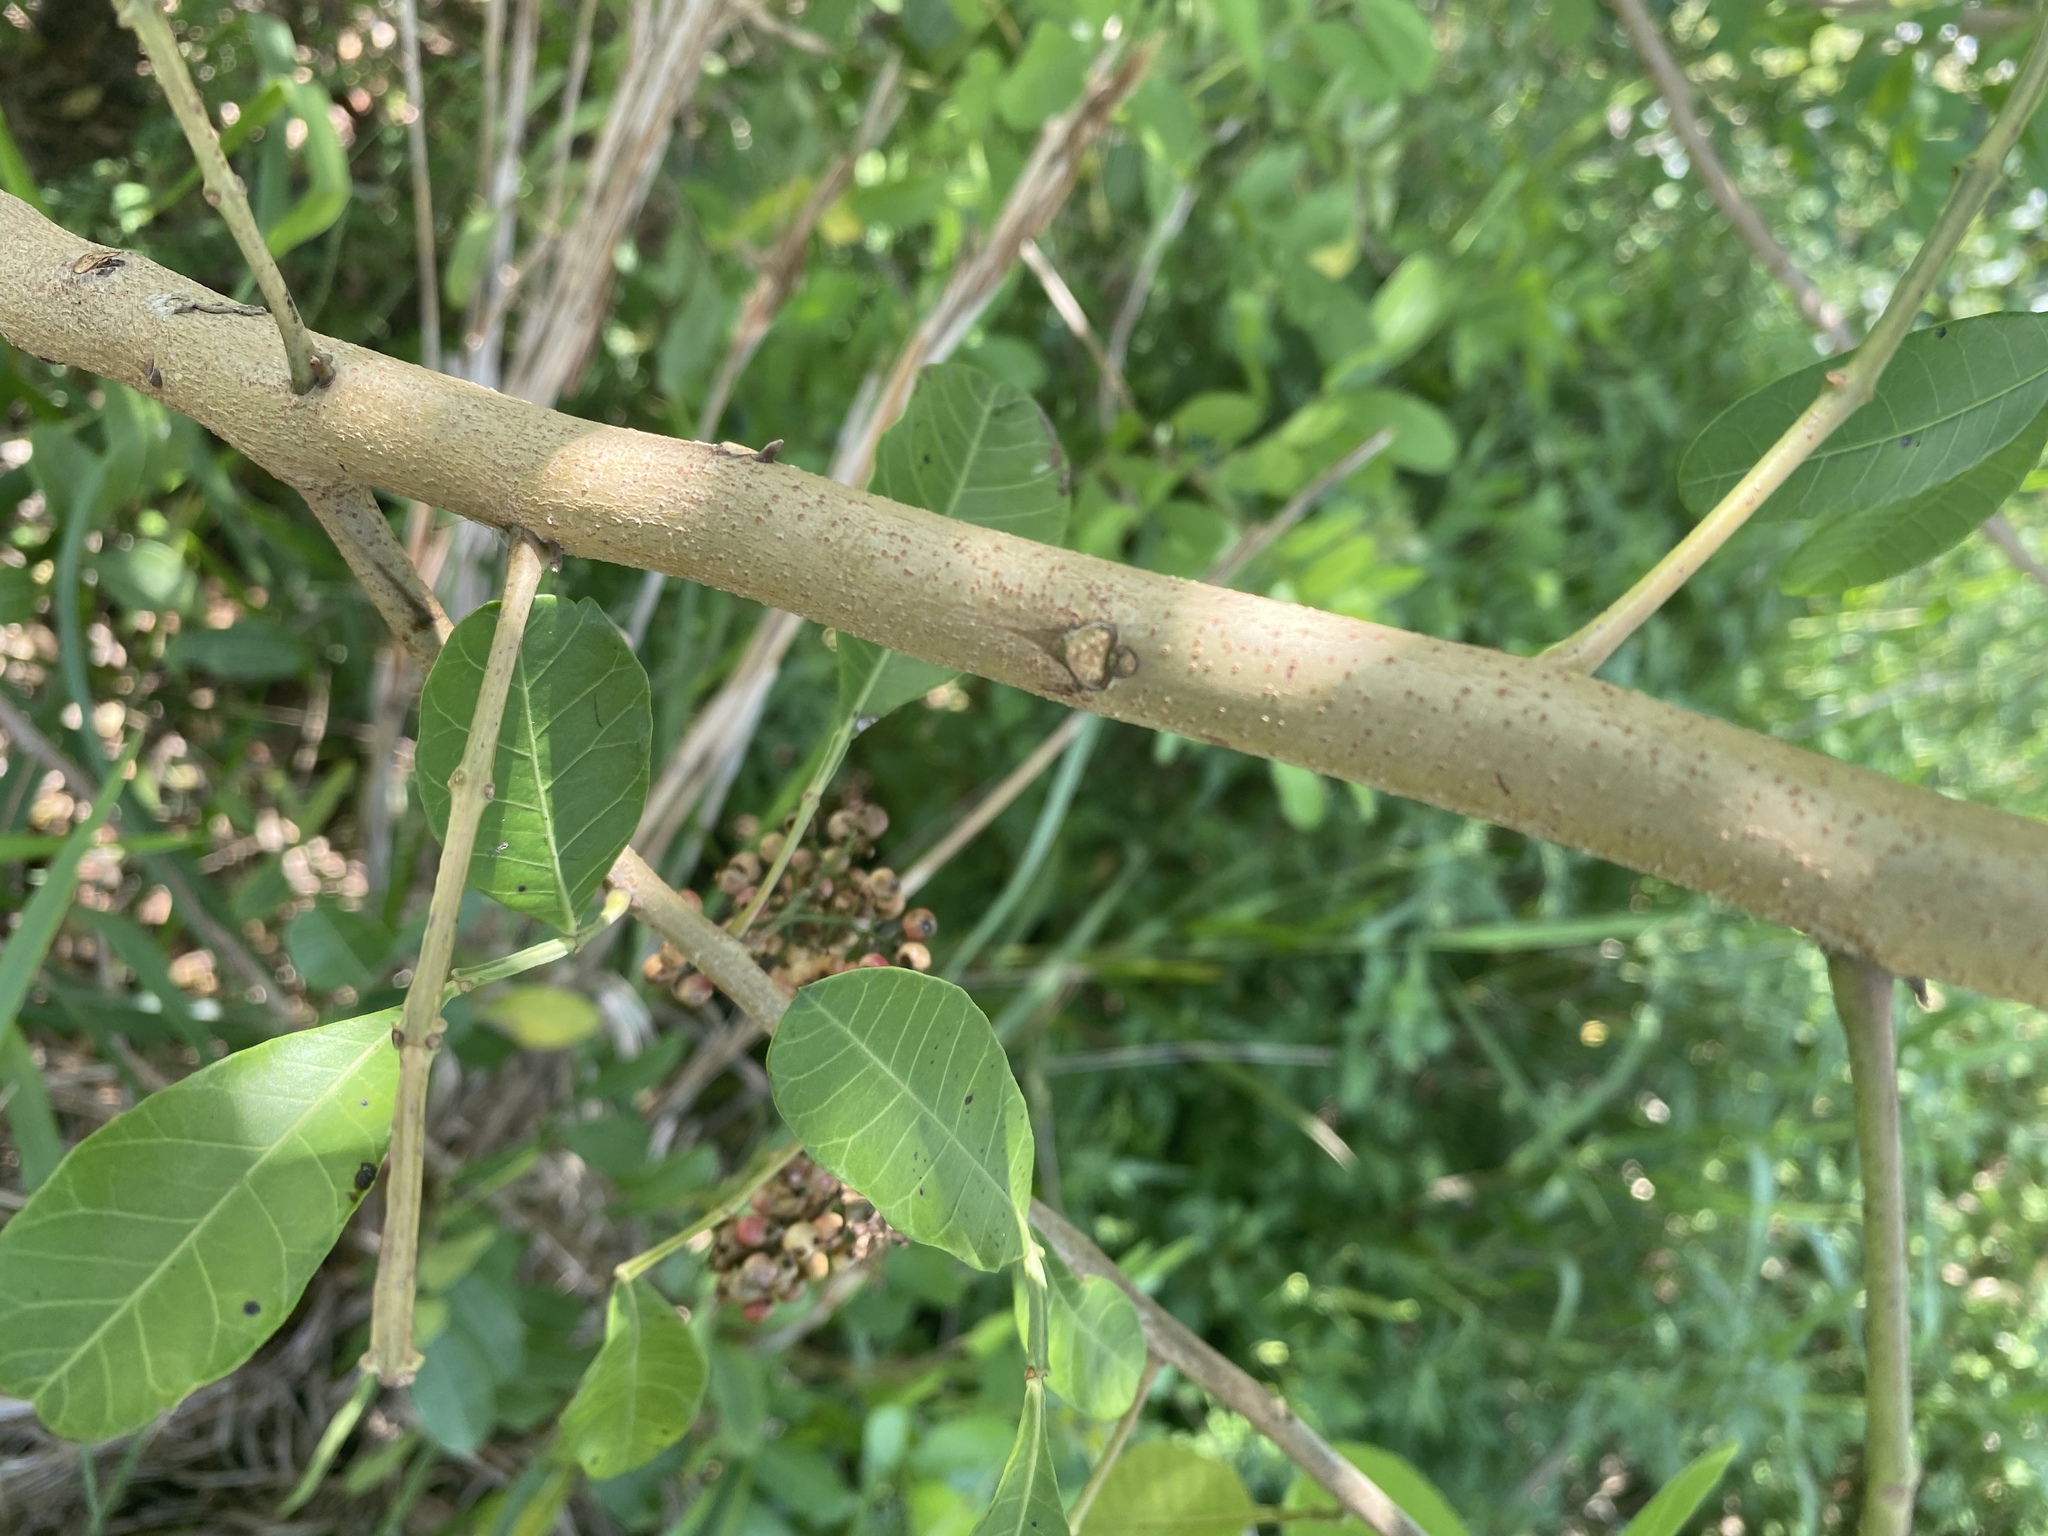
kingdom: Plantae
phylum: Tracheophyta
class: Magnoliopsida
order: Sapindales
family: Anacardiaceae
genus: Schinus
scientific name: Schinus terebinthifolia
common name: Brazilian peppertree
